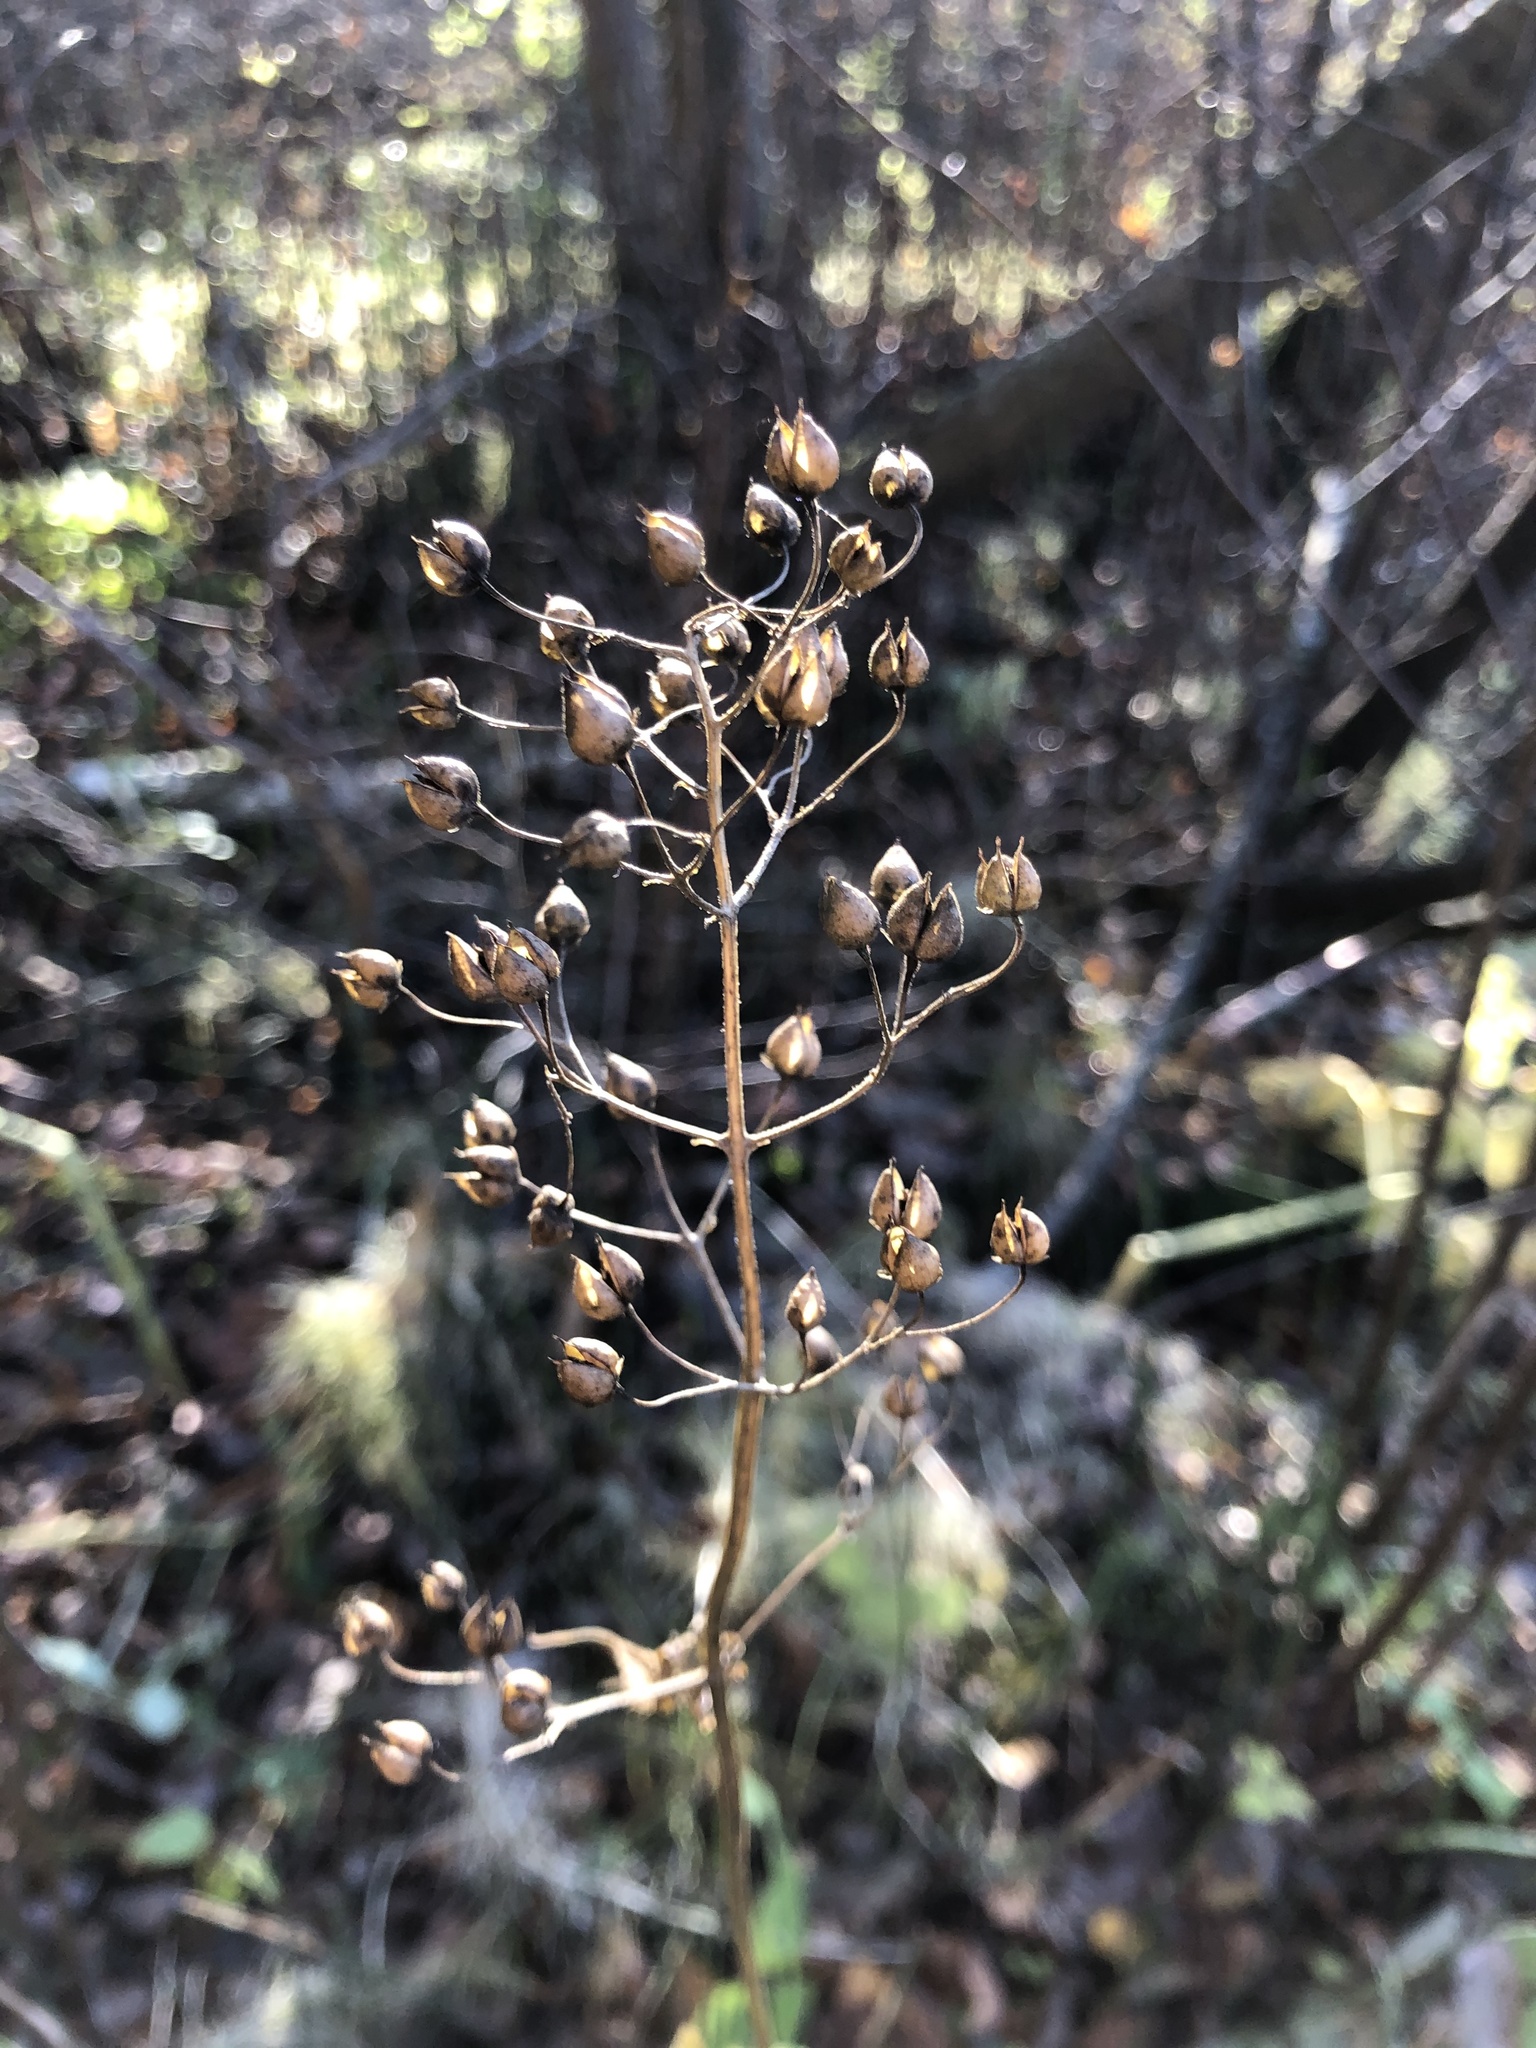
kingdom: Plantae
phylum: Tracheophyta
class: Magnoliopsida
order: Lamiales
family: Scrophulariaceae
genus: Scrophularia
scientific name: Scrophularia nodosa
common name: Common figwort
